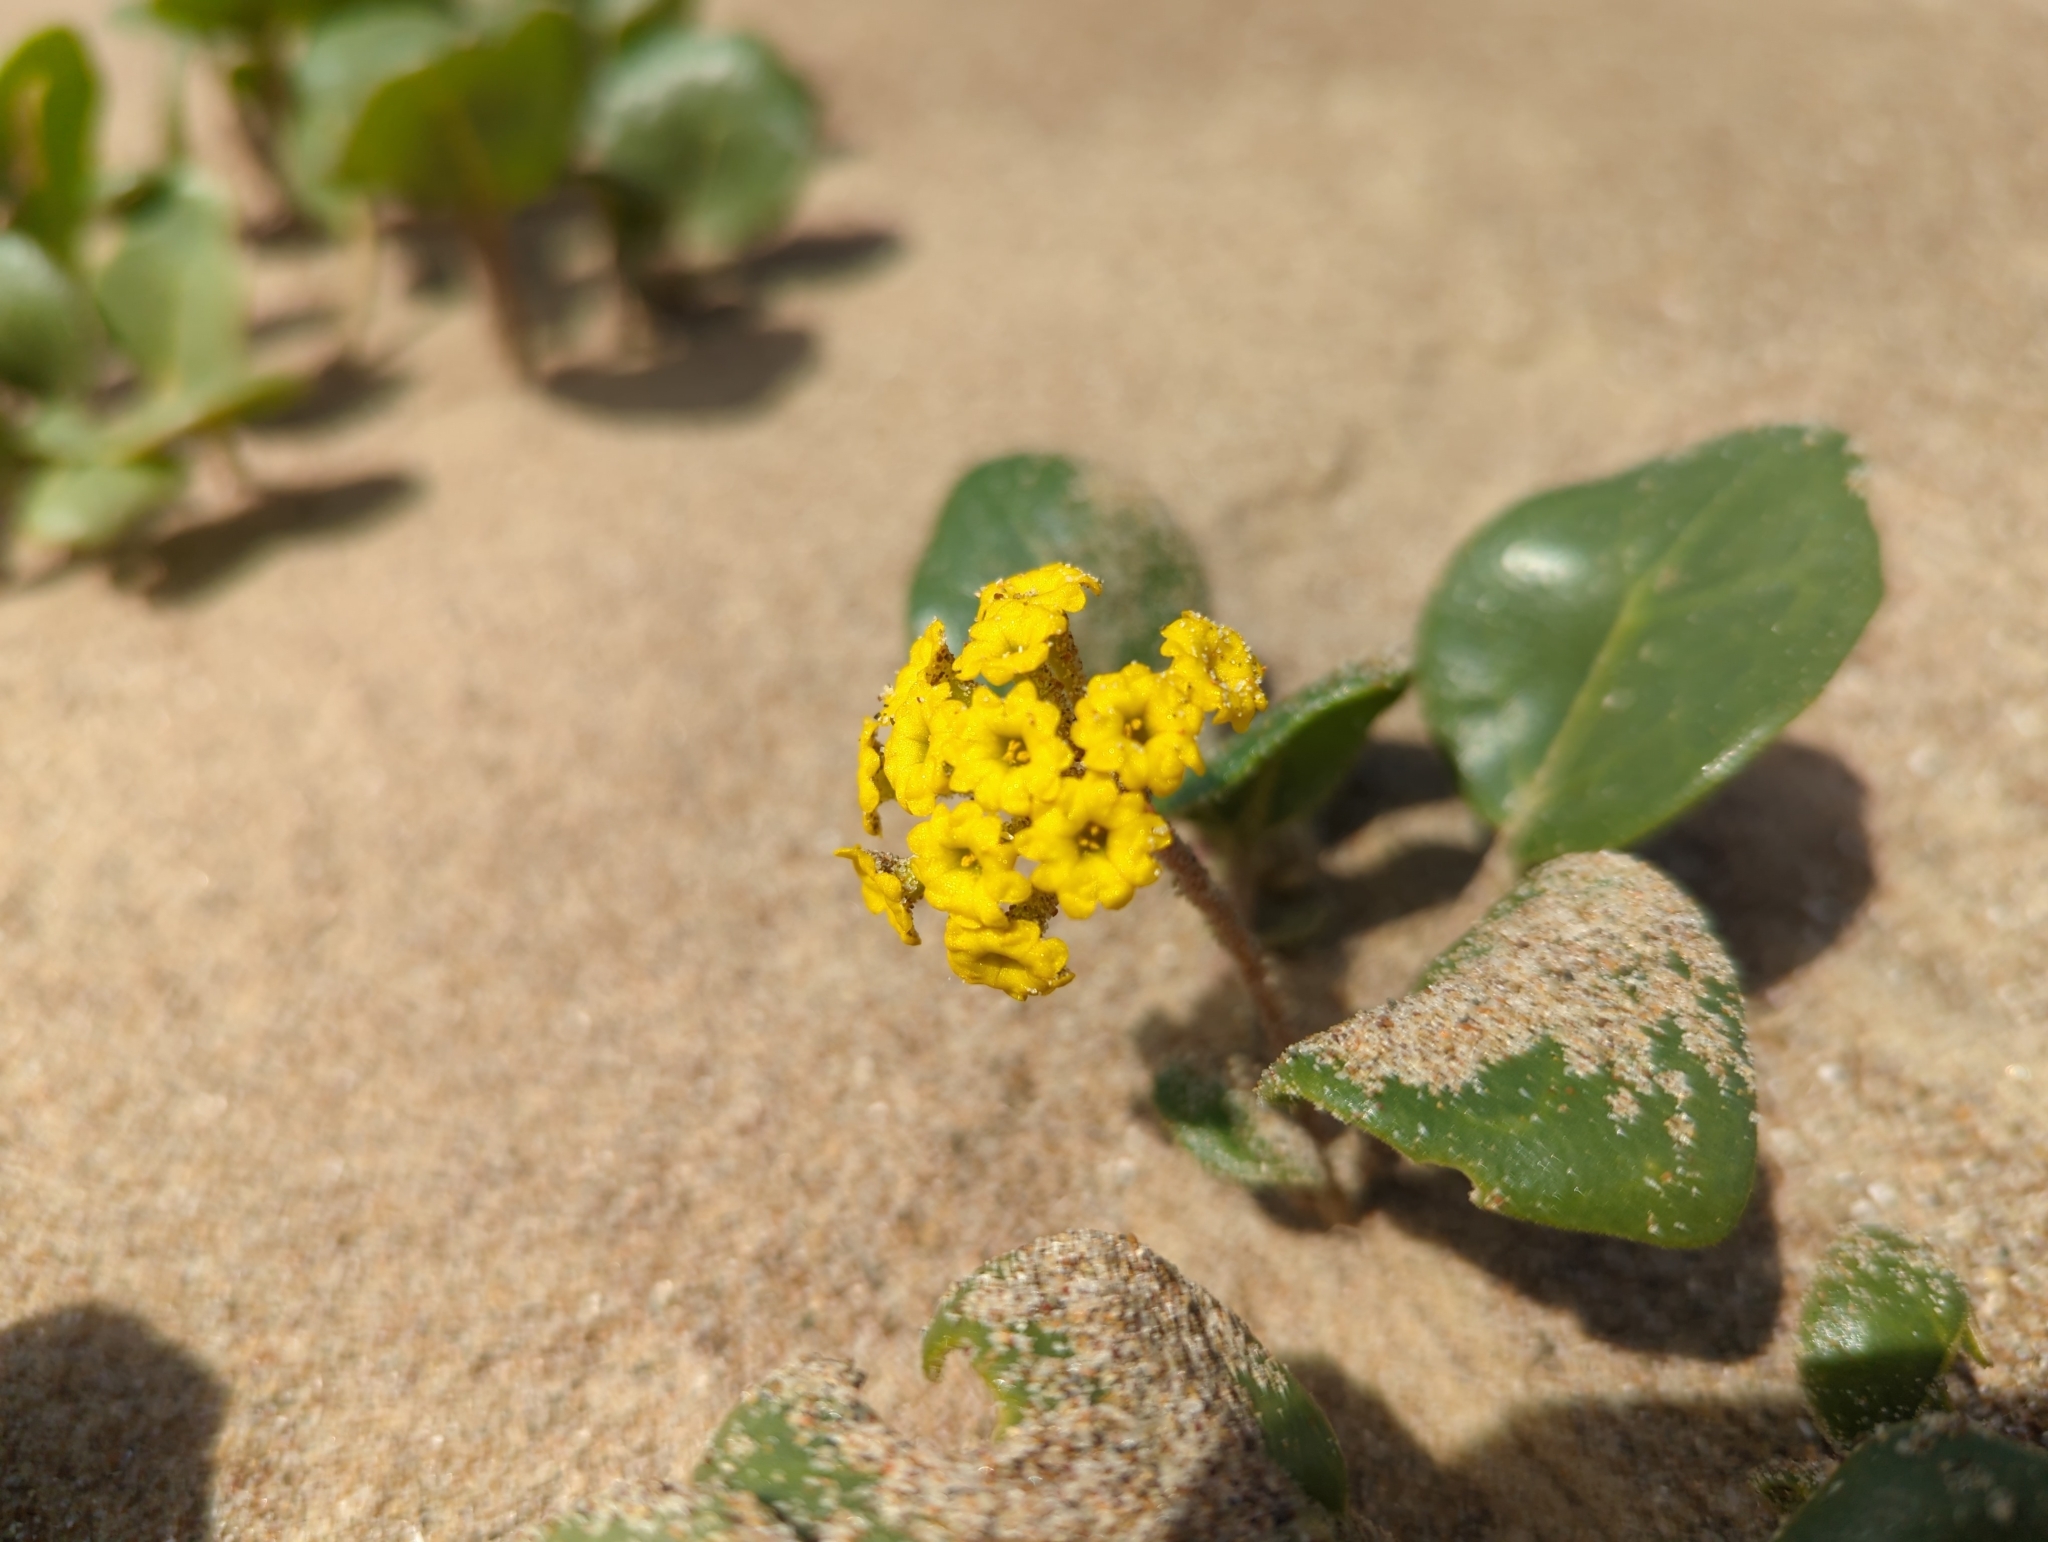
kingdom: Plantae
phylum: Tracheophyta
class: Magnoliopsida
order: Caryophyllales
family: Nyctaginaceae
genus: Abronia
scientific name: Abronia latifolia
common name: Yellow sand-verbena
